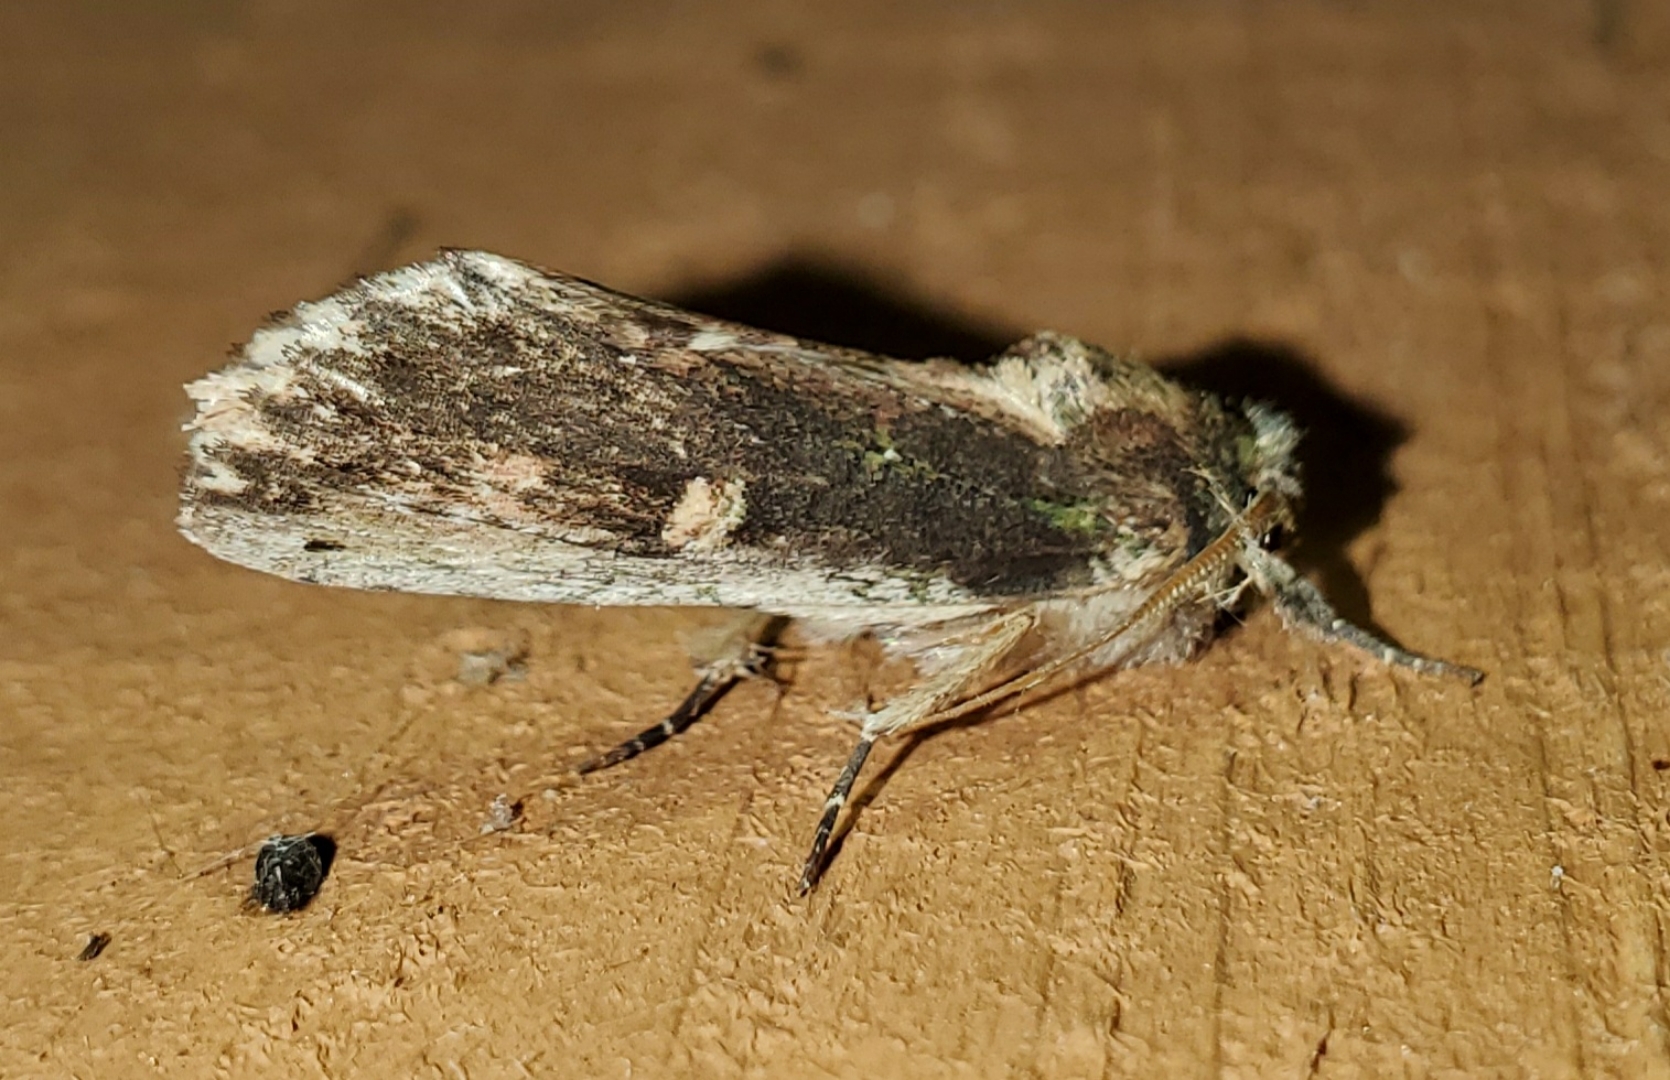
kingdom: Animalia
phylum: Arthropoda
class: Insecta
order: Lepidoptera
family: Notodontidae
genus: Schizura
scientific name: Schizura ipomaeae
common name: Morning-glory prominent
